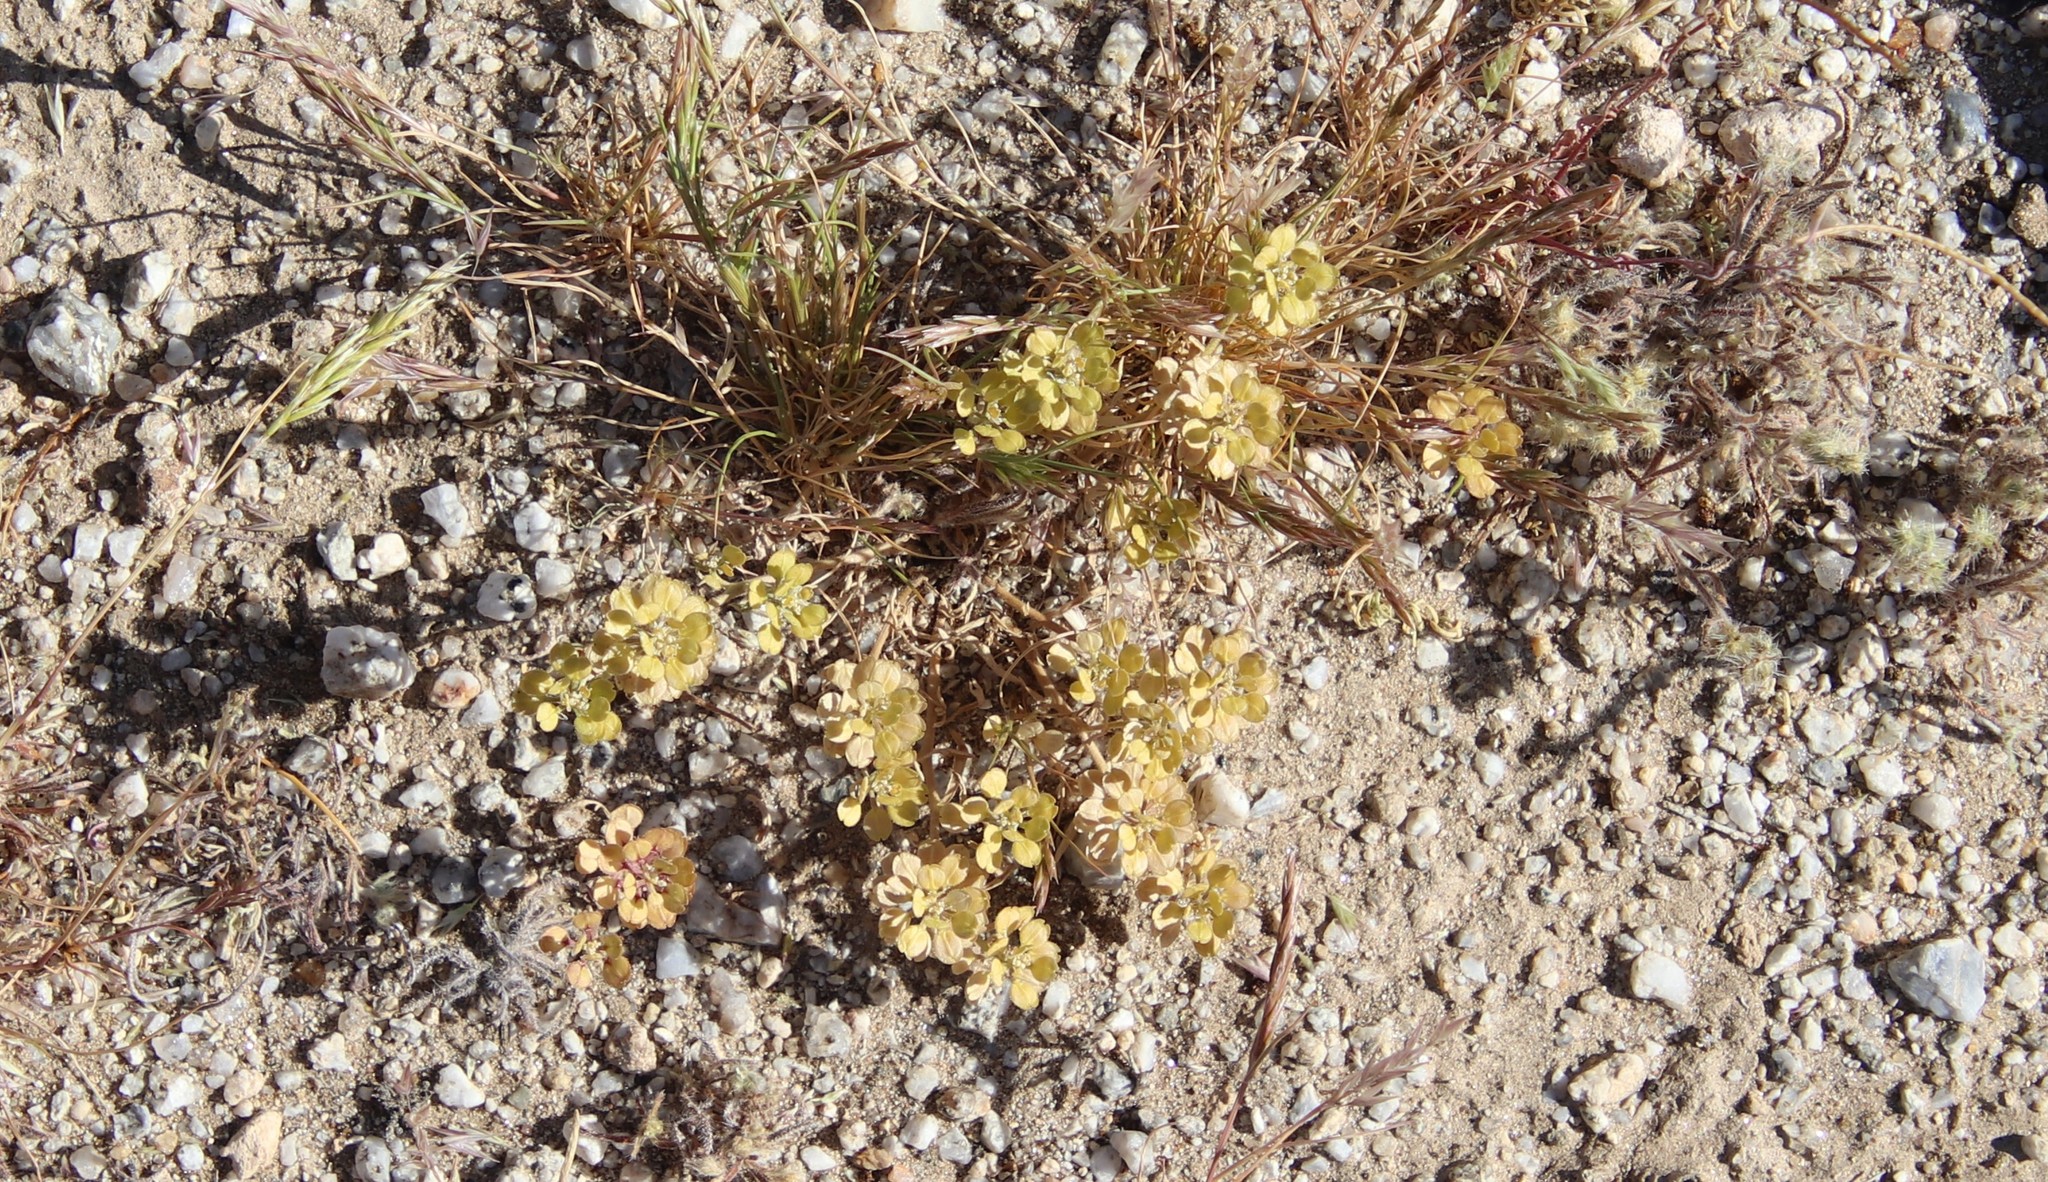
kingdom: Plantae
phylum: Tracheophyta
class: Magnoliopsida
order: Brassicales
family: Brassicaceae
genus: Lepidium
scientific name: Lepidium lasiocarpum
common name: Hairy-pod pepperwort
